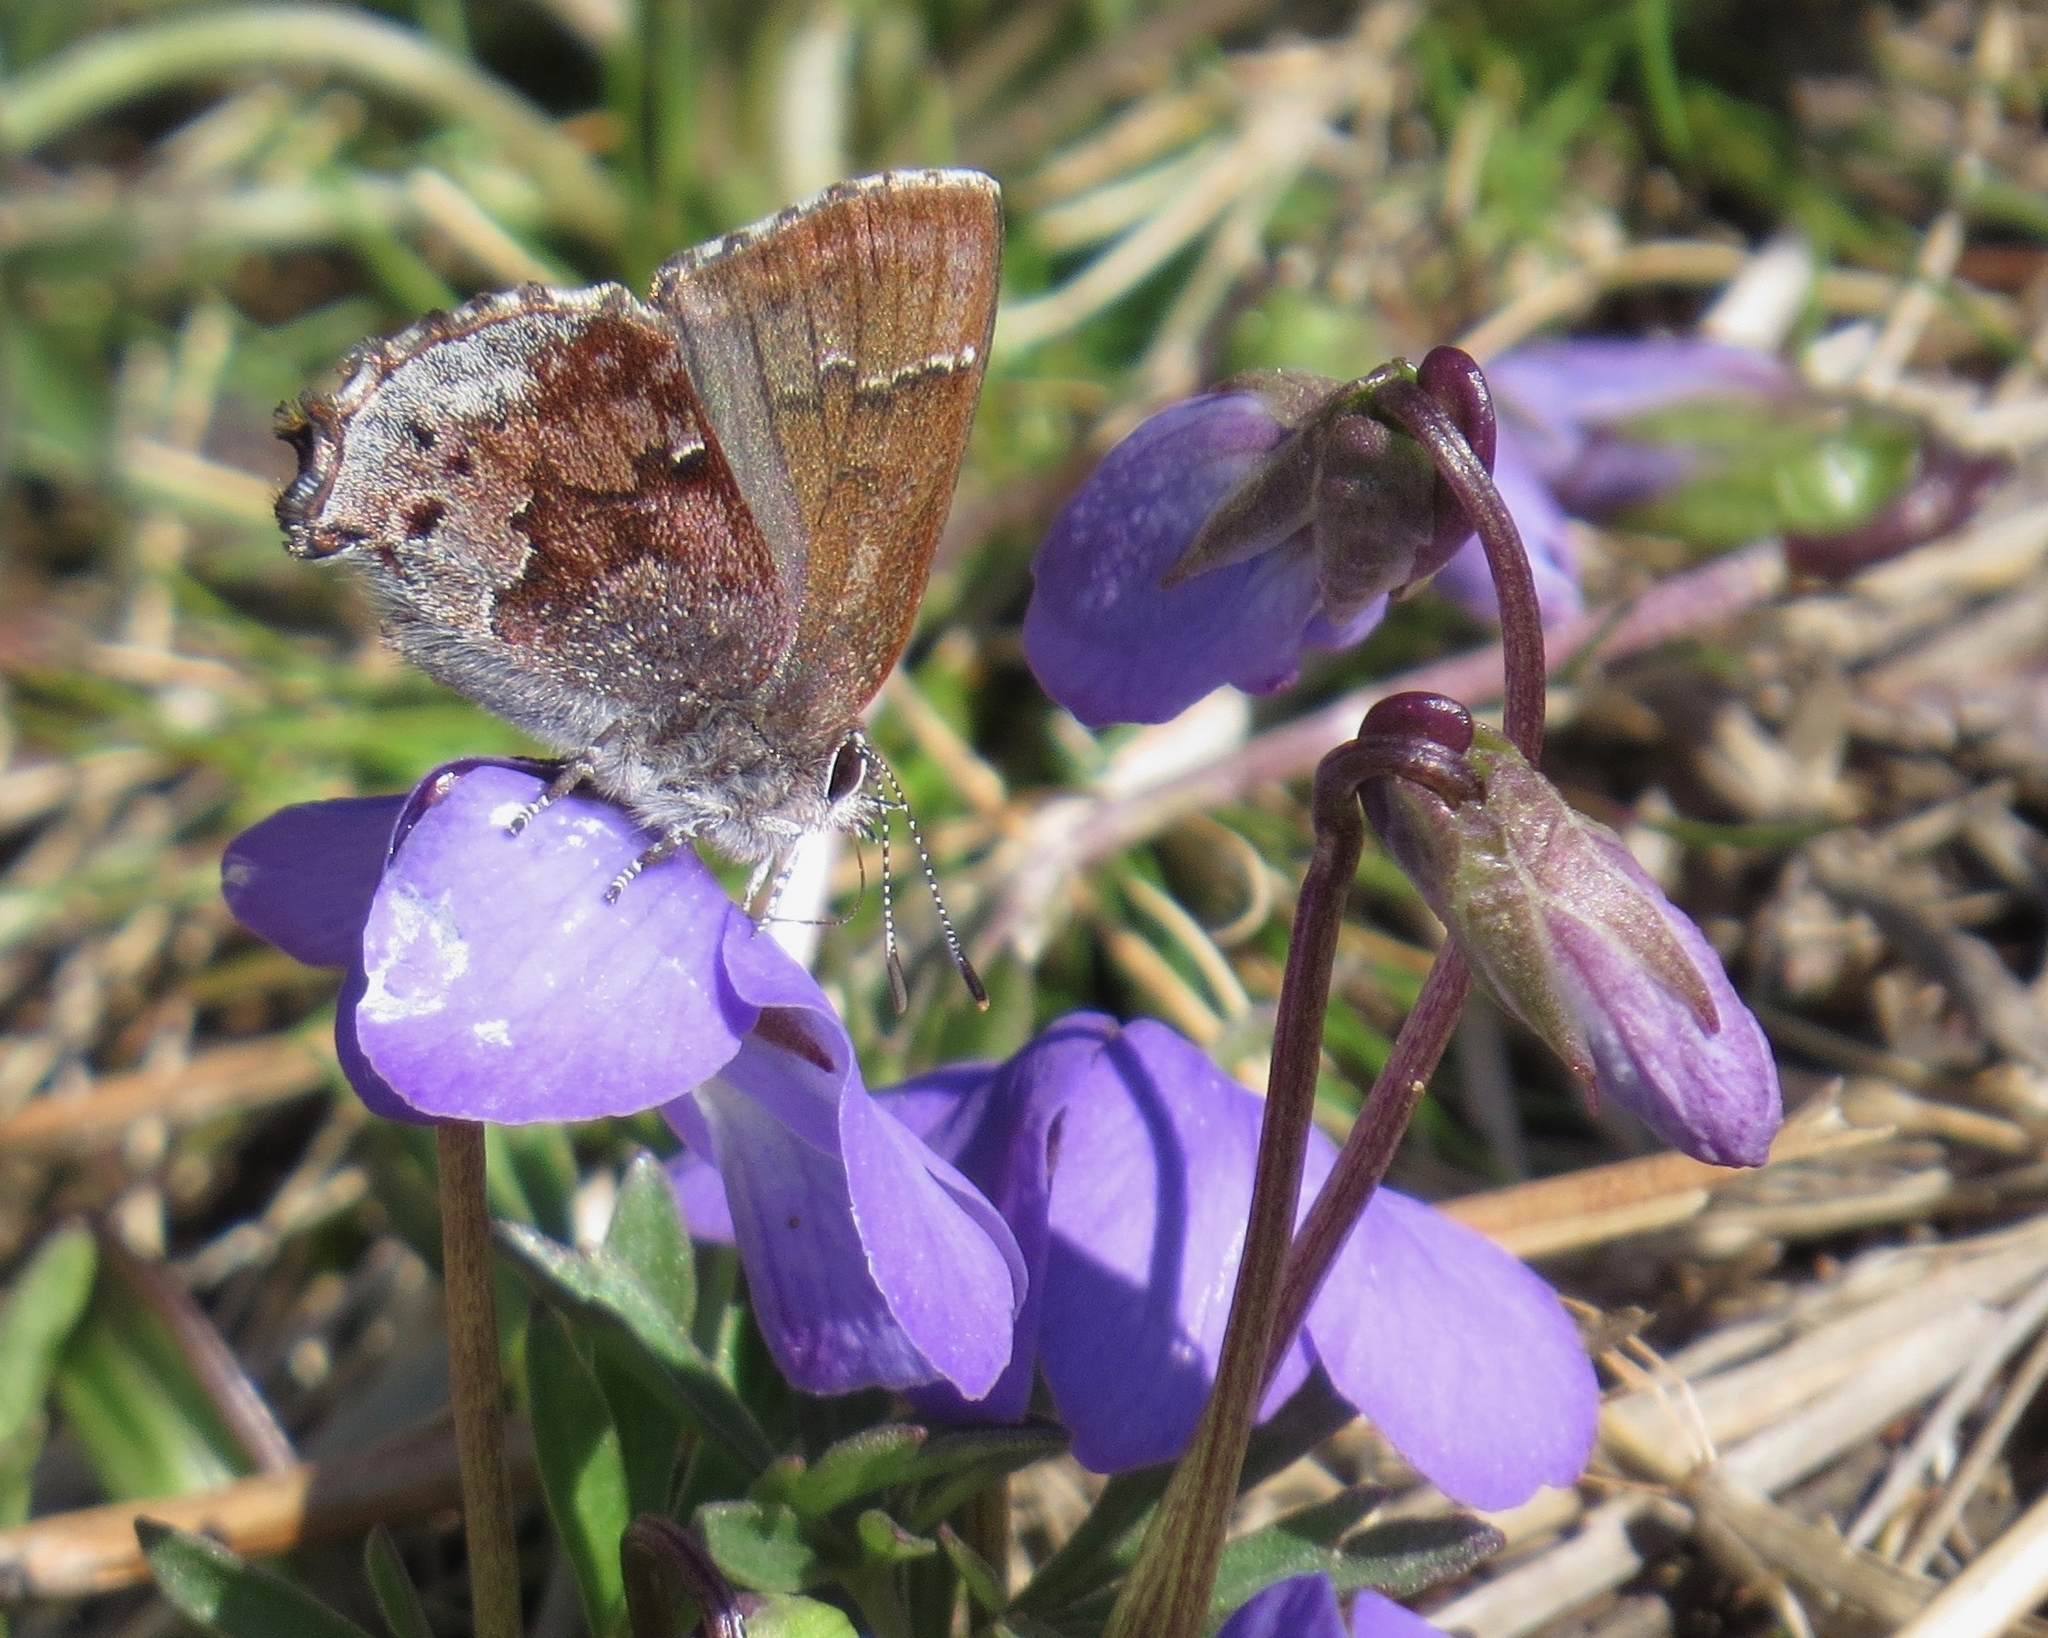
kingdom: Plantae
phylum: Tracheophyta
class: Magnoliopsida
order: Malpighiales
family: Violaceae
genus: Viola
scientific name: Viola pedata
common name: Pansy violet
